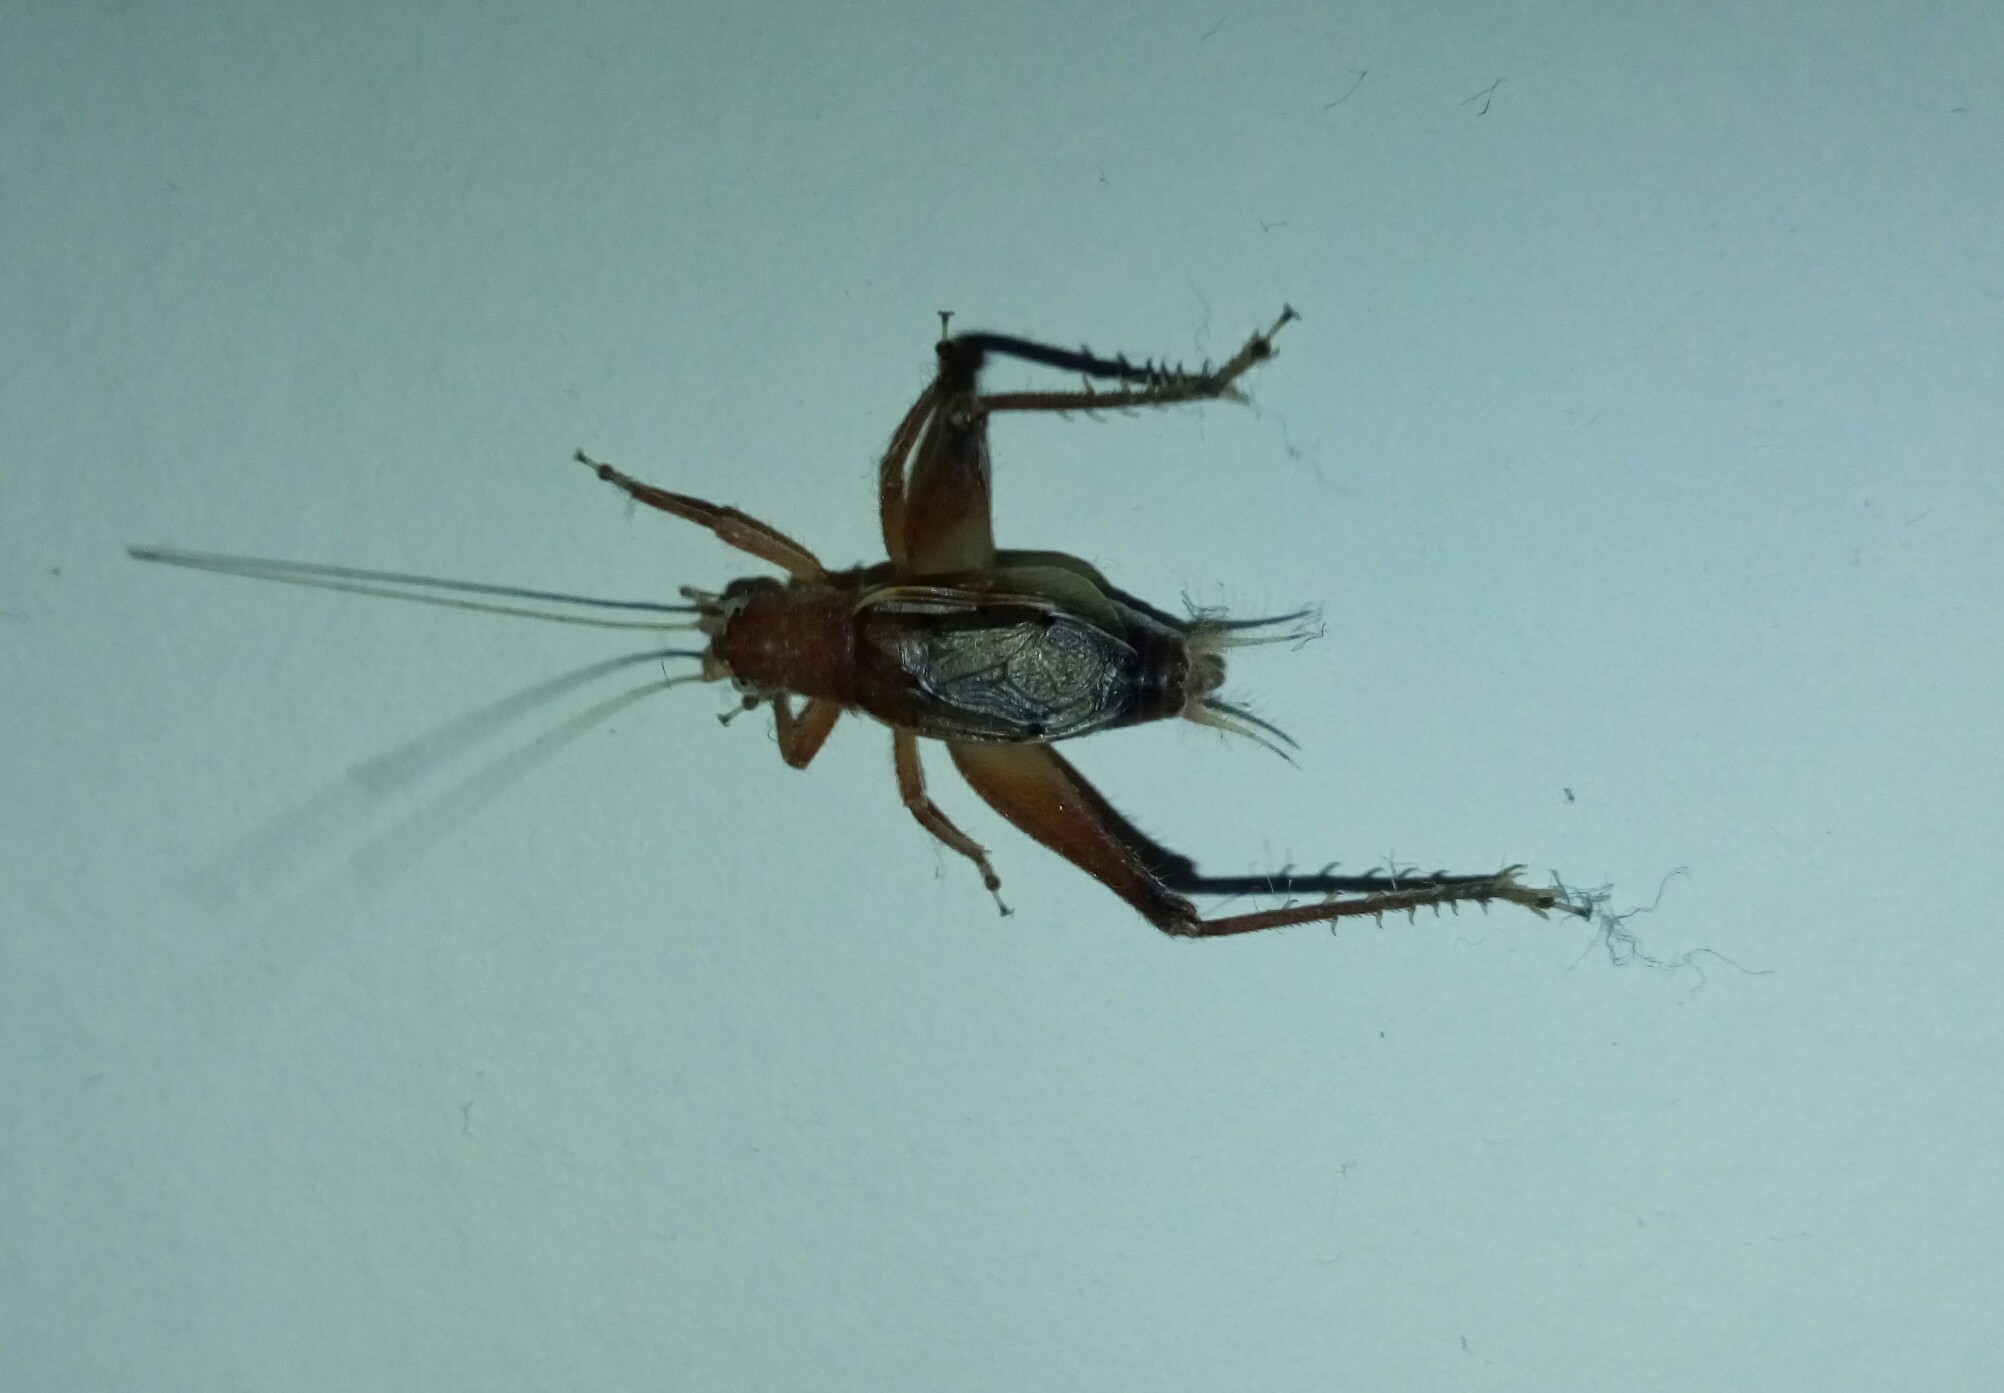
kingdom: Animalia
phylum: Arthropoda
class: Insecta
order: Orthoptera
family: Gryllidae
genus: Hapithus
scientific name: Hapithus agitator
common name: Restless bush cricket
